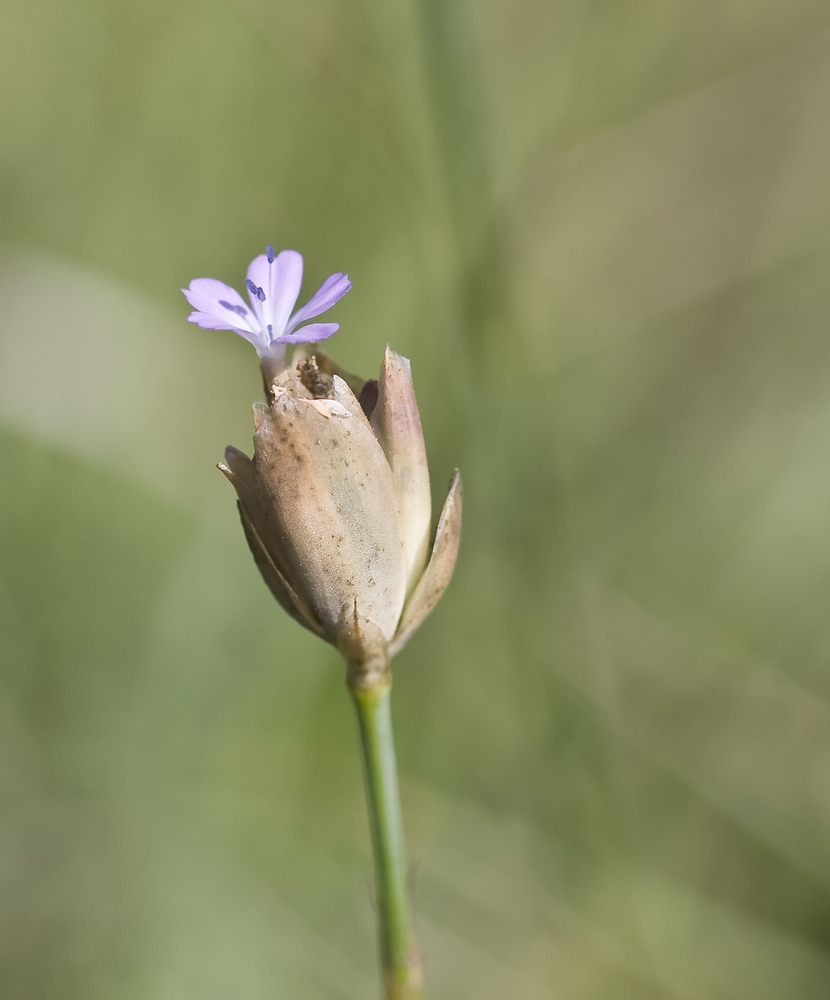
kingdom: Plantae
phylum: Tracheophyta
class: Magnoliopsida
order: Caryophyllales
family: Caryophyllaceae
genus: Petrorhagia
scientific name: Petrorhagia prolifera
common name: Proliferous pink
